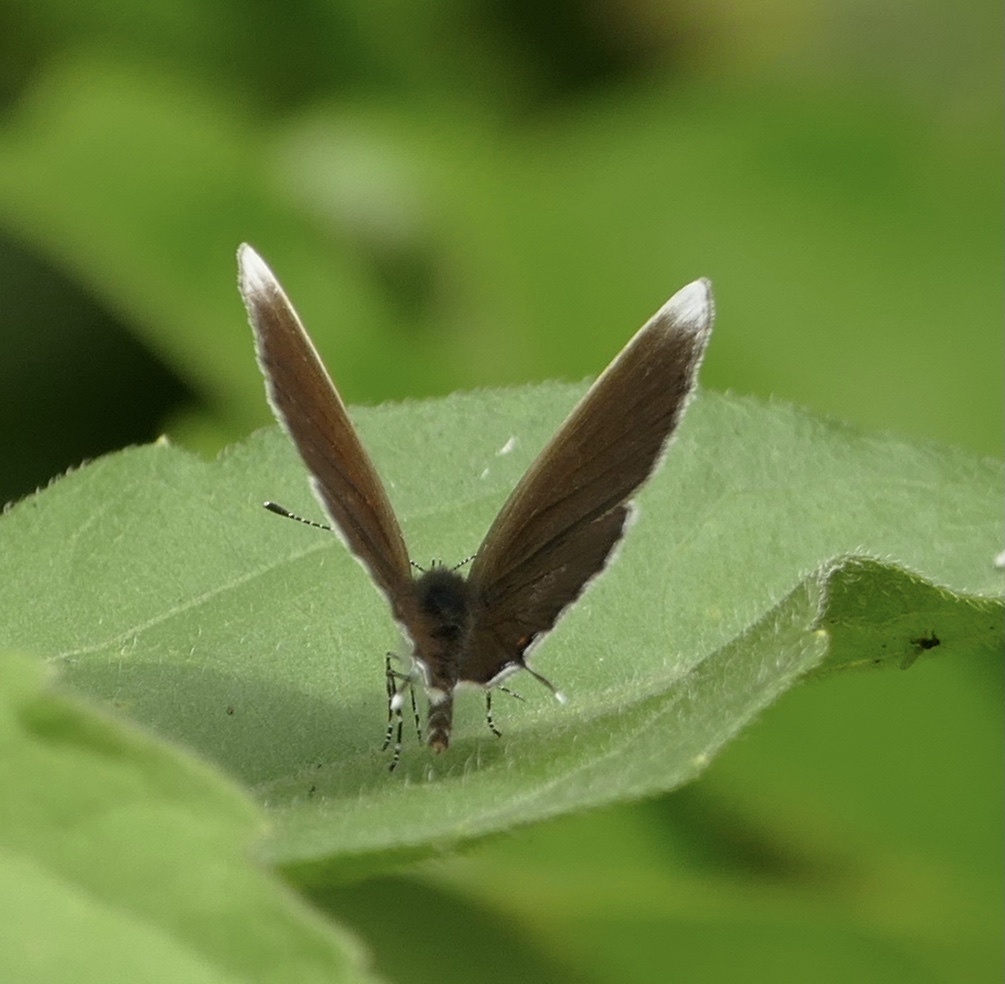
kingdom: Animalia
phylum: Arthropoda
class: Insecta
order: Lepidoptera
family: Lycaenidae
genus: Eicochrysops
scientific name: Eicochrysops hippocrates
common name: White-tipped blue
